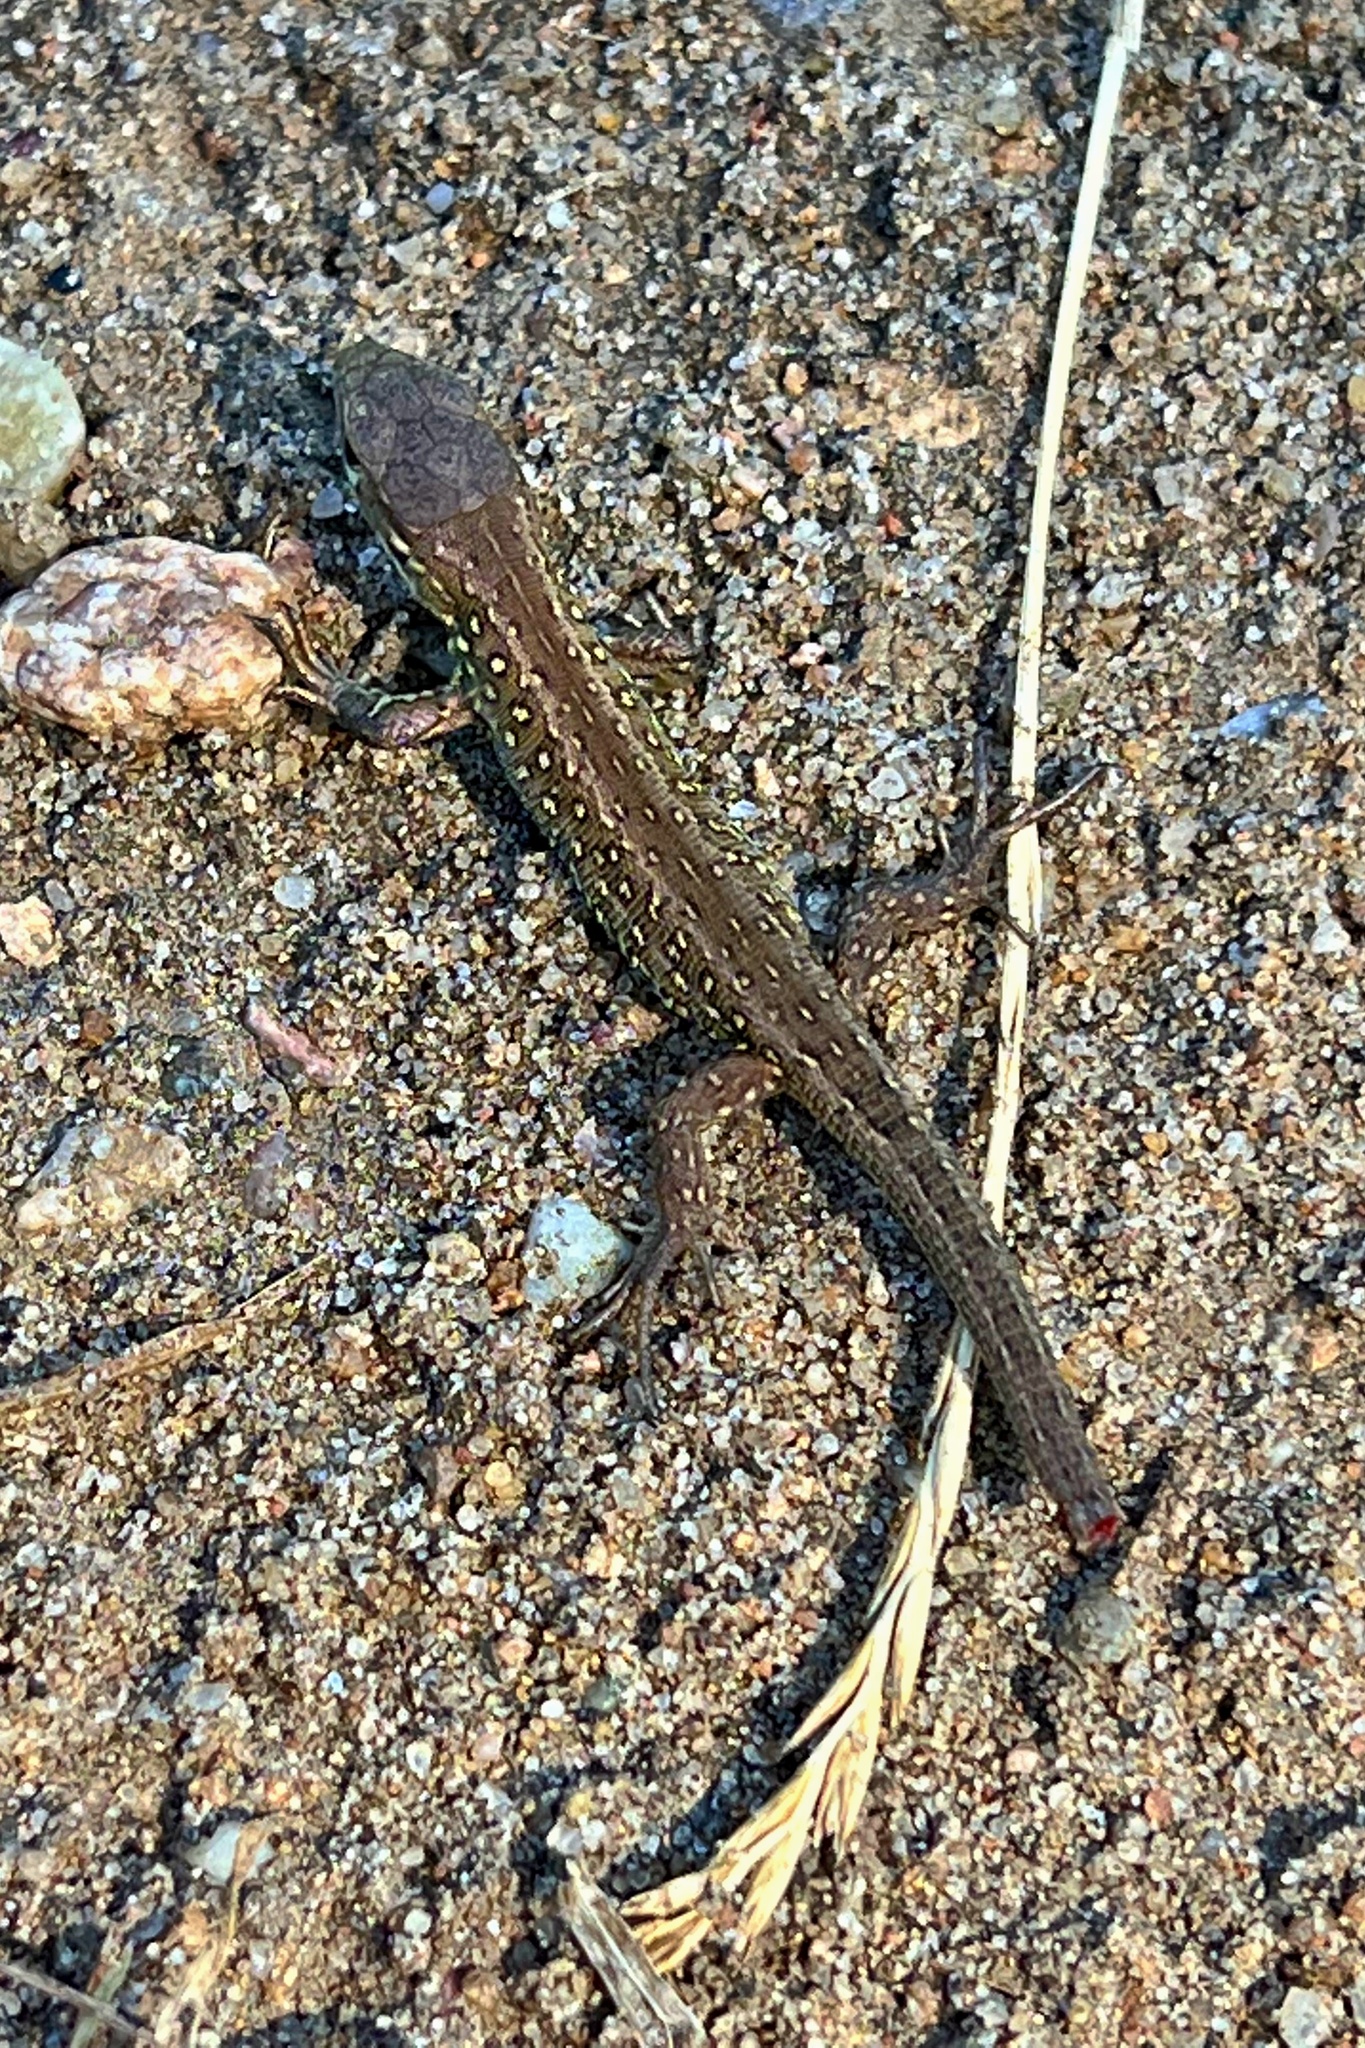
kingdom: Animalia
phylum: Chordata
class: Squamata
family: Lacertidae
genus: Lacerta
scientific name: Lacerta agilis
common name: Sand lizard
